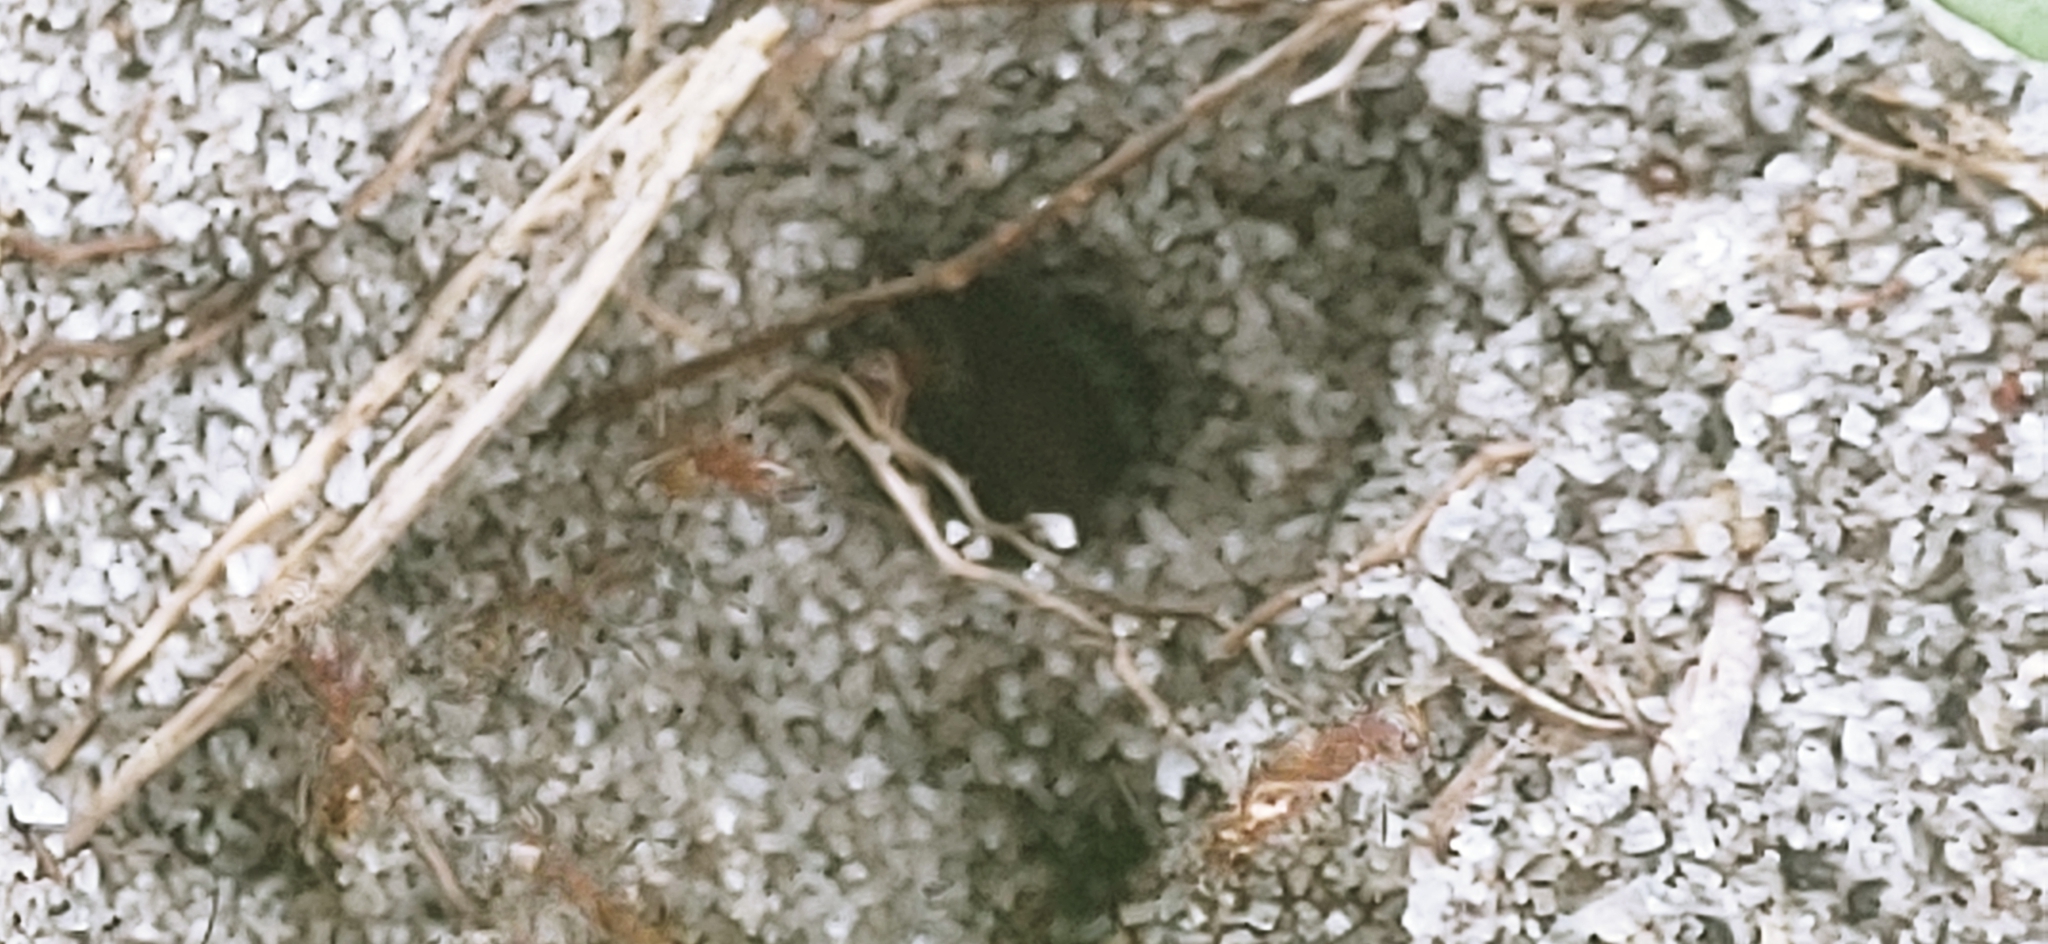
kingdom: Animalia
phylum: Arthropoda
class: Insecta
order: Hymenoptera
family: Formicidae
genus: Dorymyrmex
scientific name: Dorymyrmex bureni
